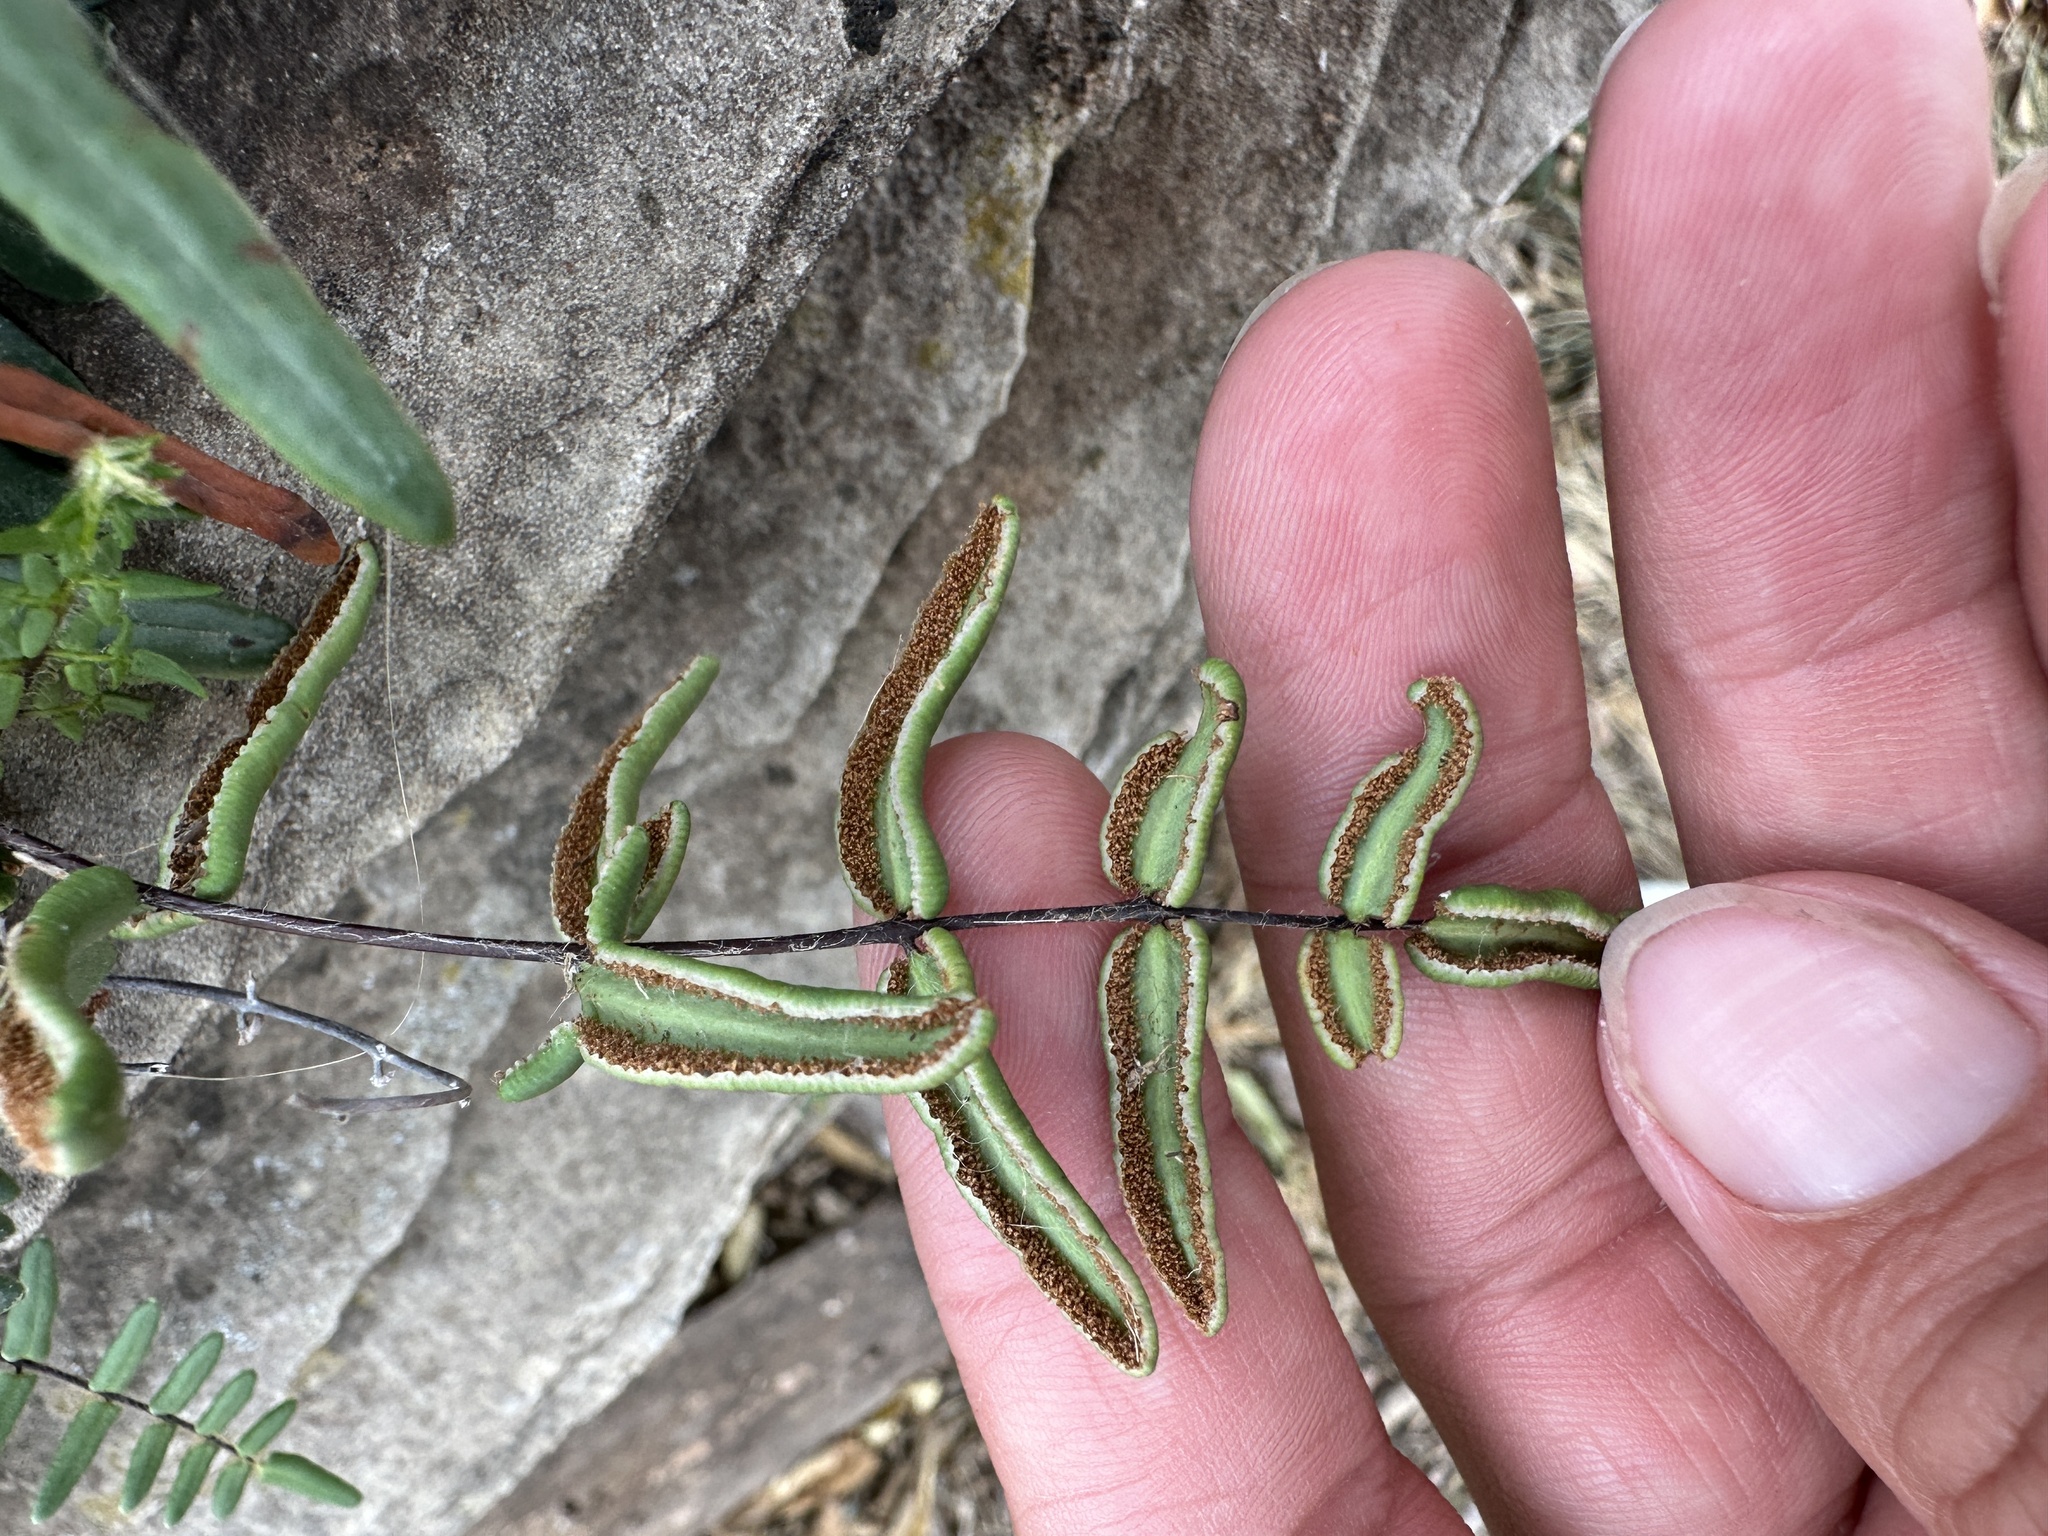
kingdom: Plantae
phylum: Tracheophyta
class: Polypodiopsida
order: Polypodiales
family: Pteridaceae
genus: Pellaea
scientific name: Pellaea atropurpurea
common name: Hairy cliffbrake
